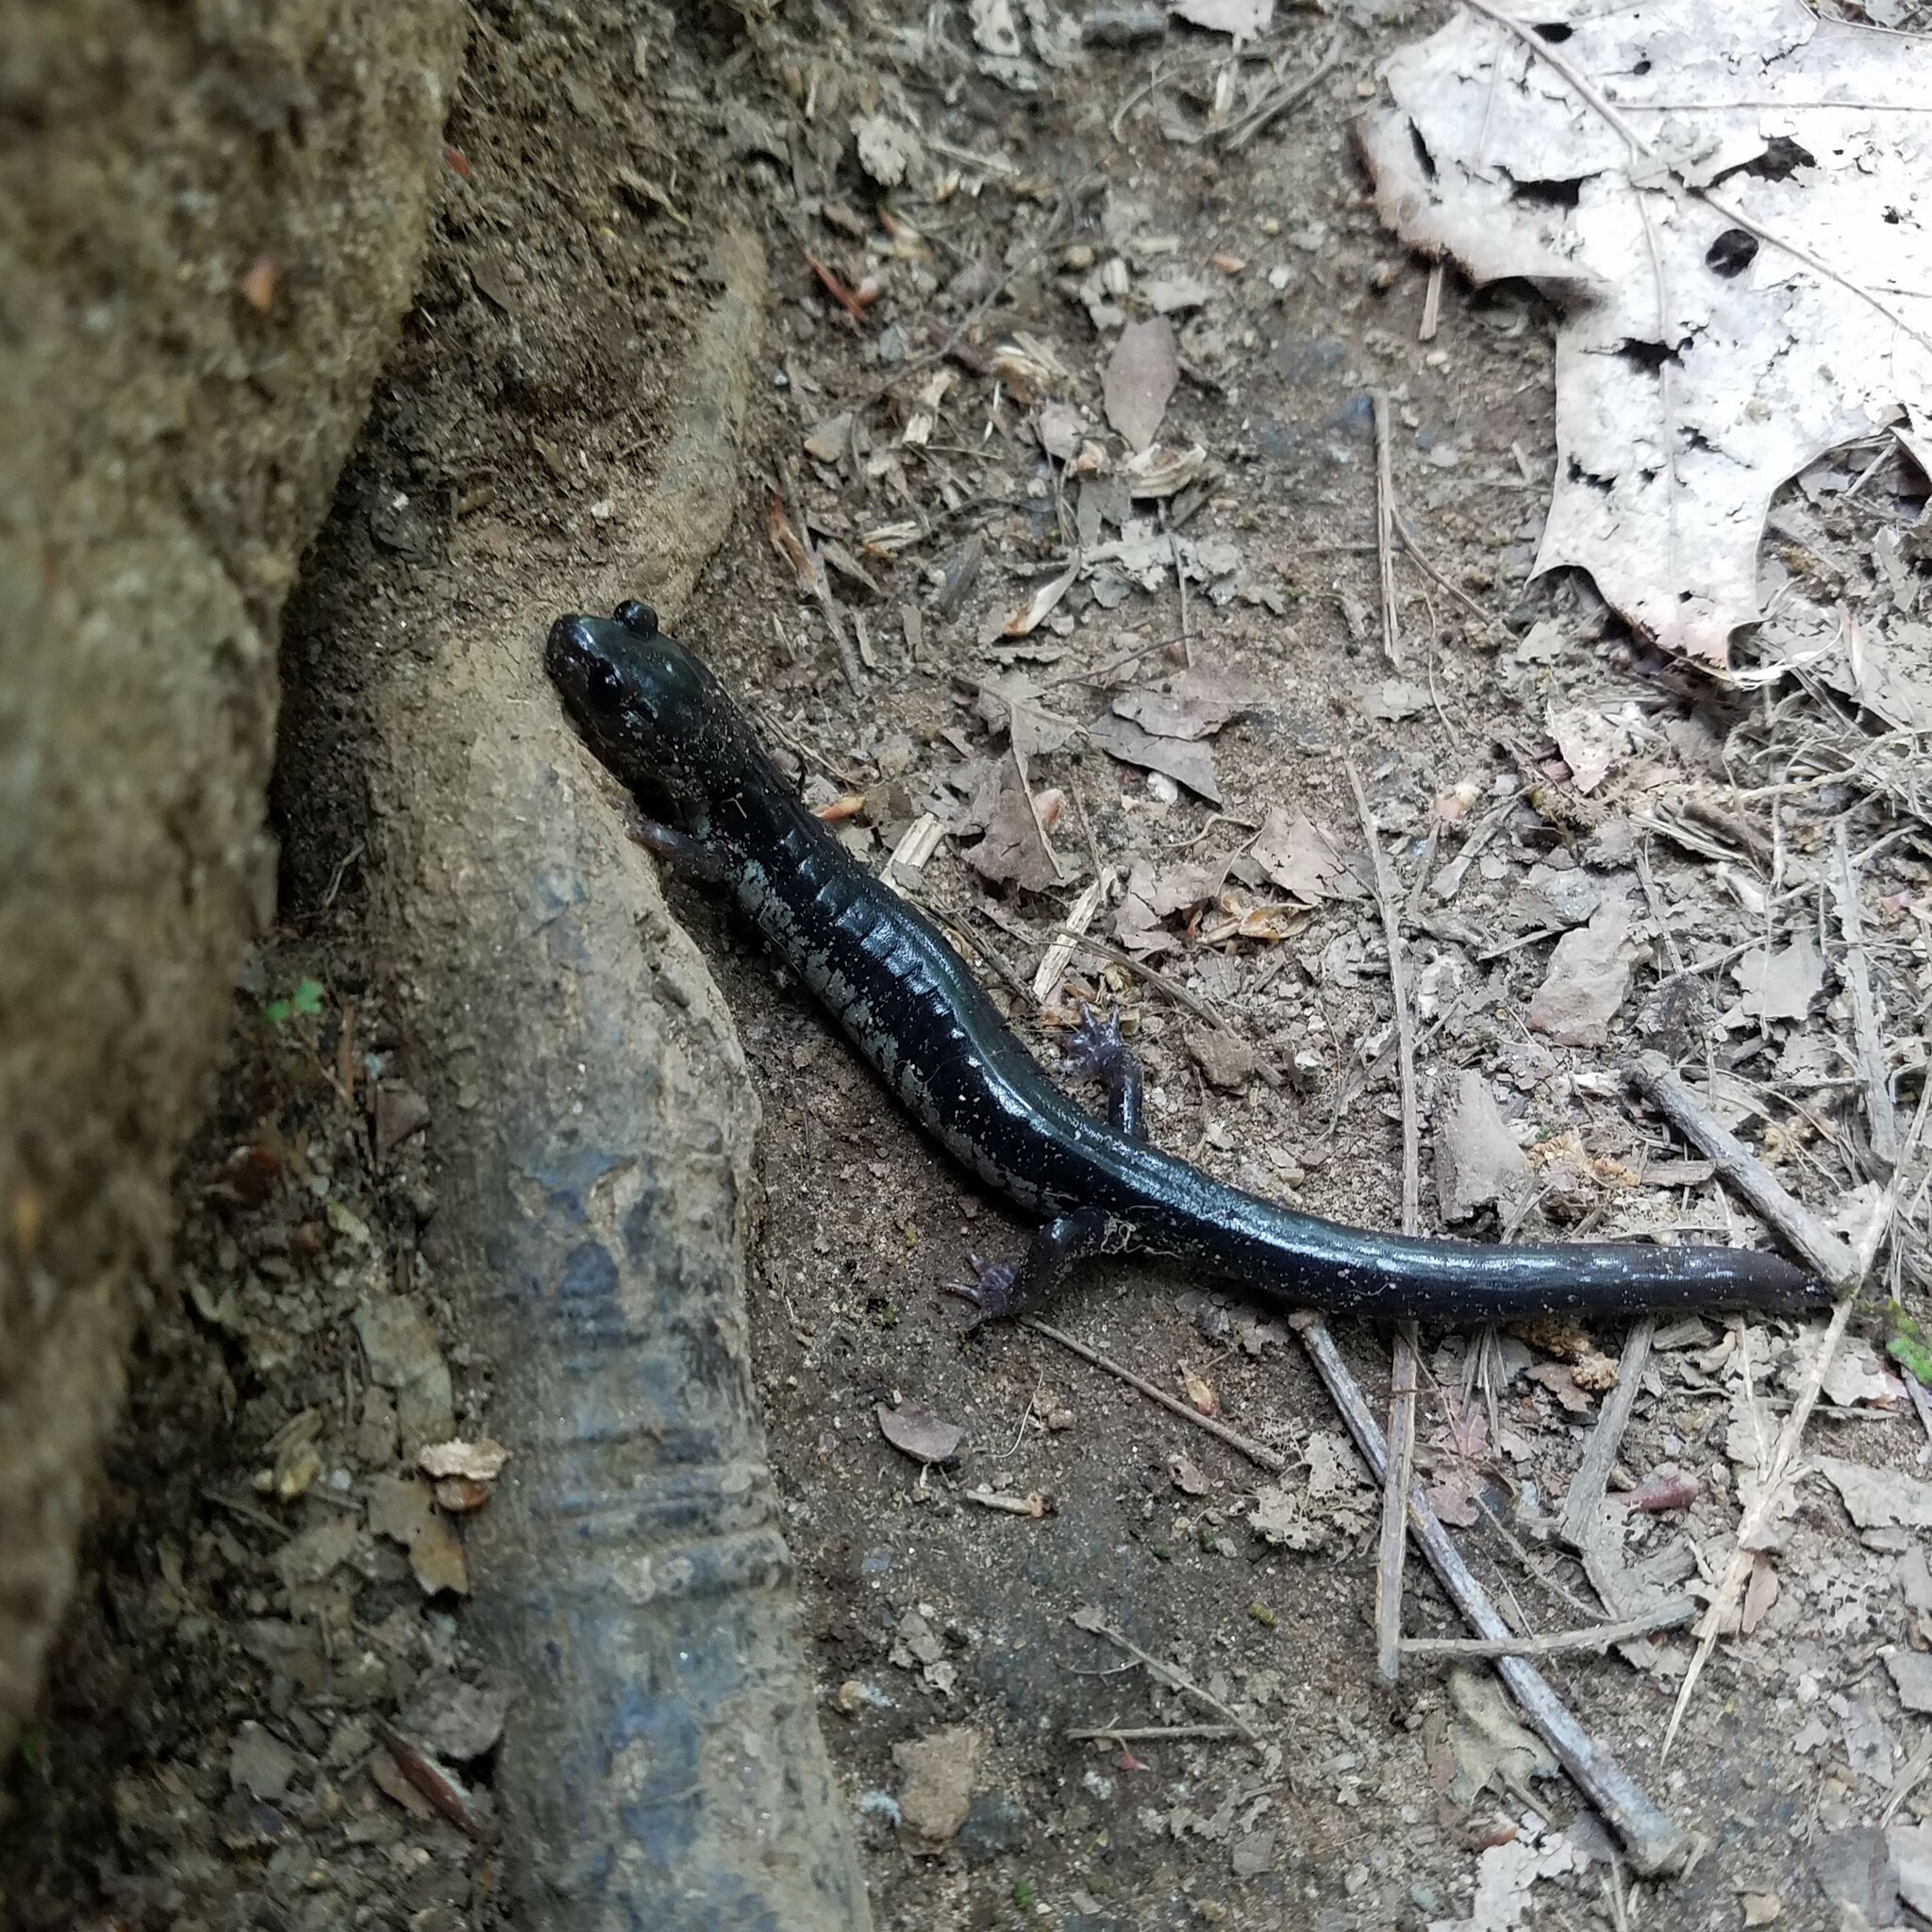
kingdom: Animalia
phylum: Chordata
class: Amphibia
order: Caudata
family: Plethodontidae
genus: Plethodon
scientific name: Plethodon chattahoochee
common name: Chattahoochee slimy salamander
